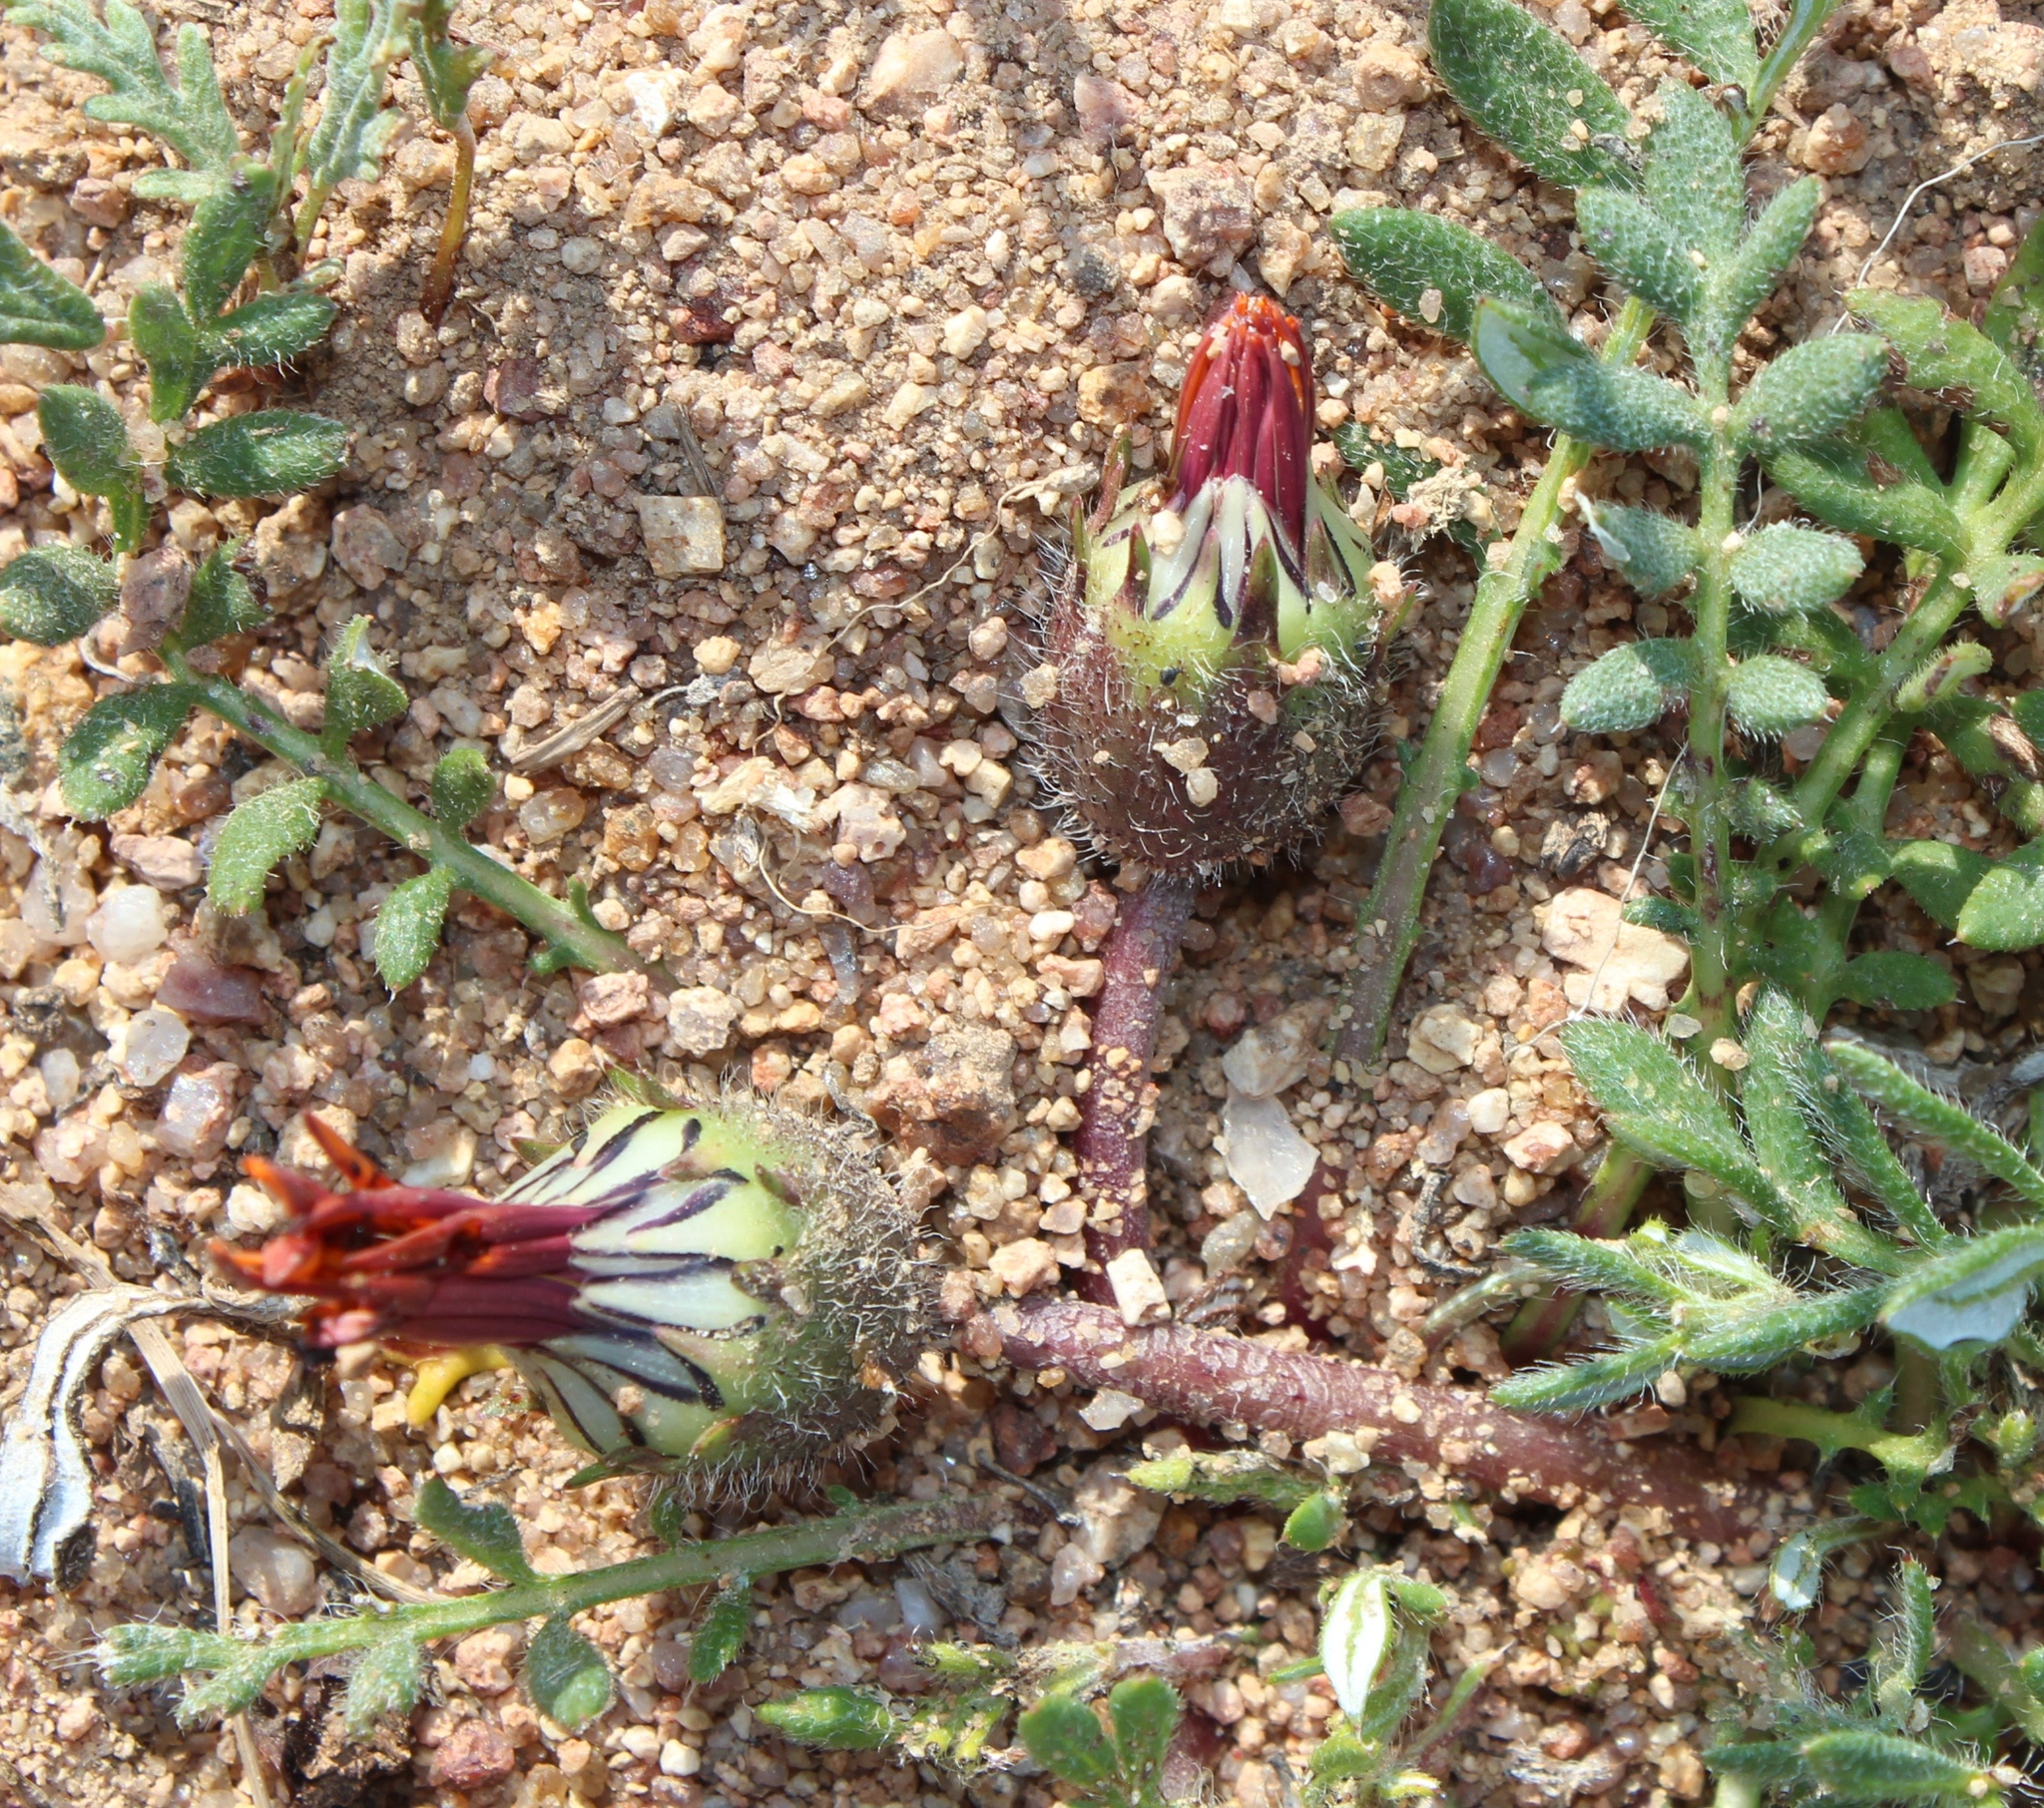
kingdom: Plantae
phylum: Tracheophyta
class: Magnoliopsida
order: Asterales
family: Asteraceae
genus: Gazania
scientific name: Gazania leiopoda
